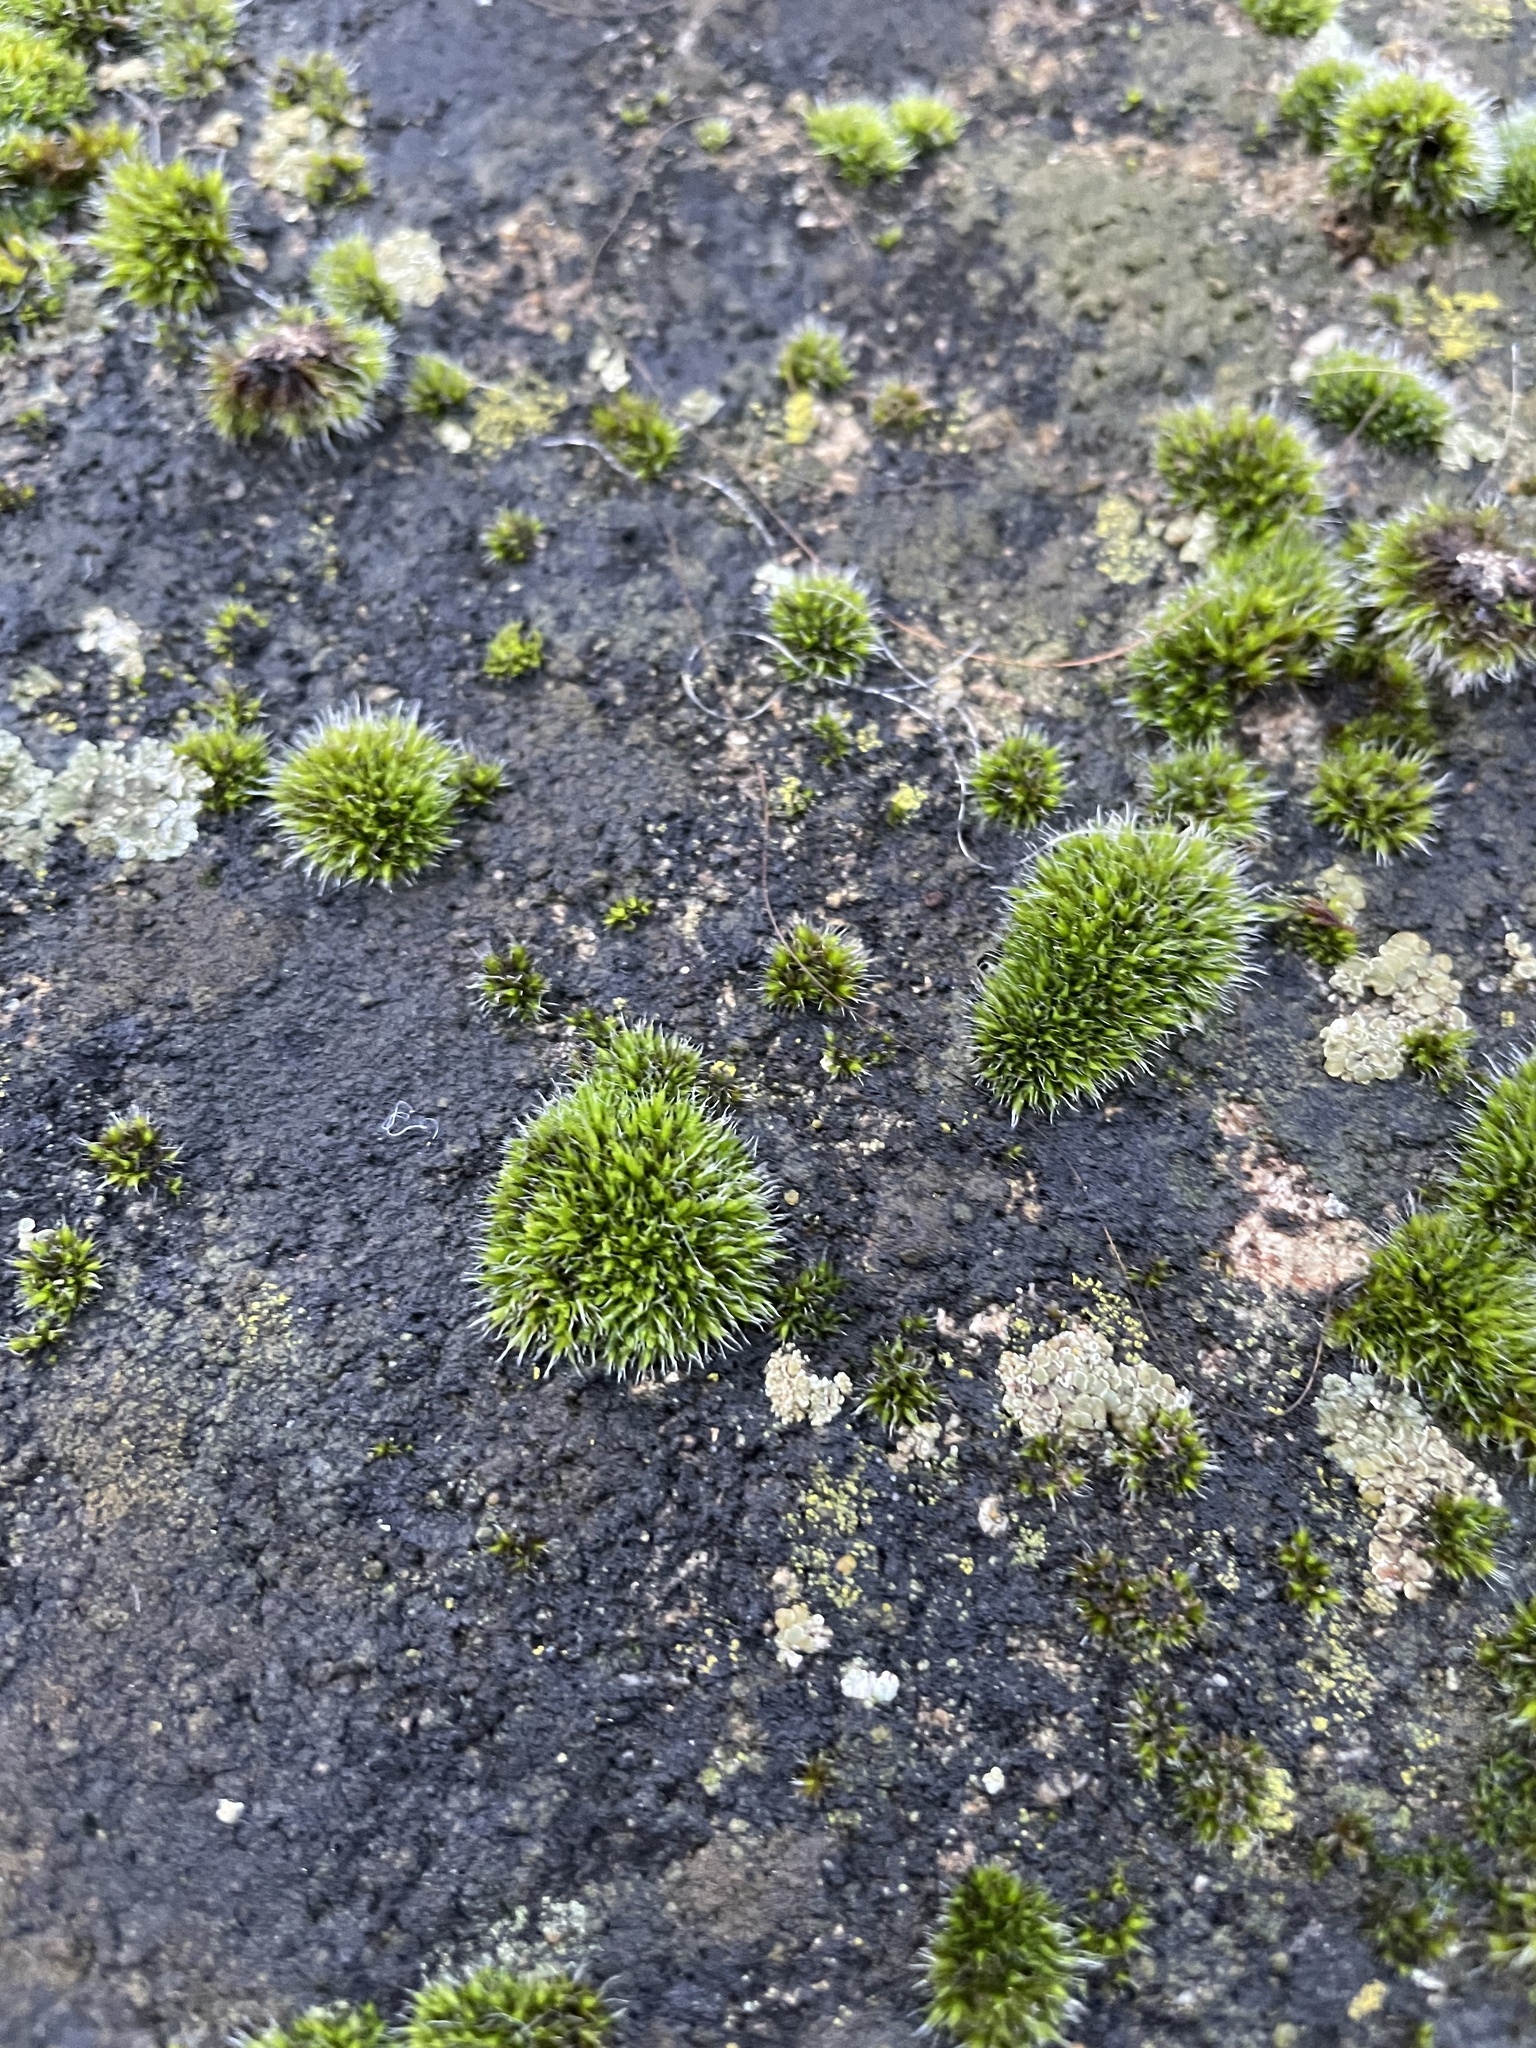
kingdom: Plantae
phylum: Bryophyta
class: Bryopsida
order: Grimmiales
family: Grimmiaceae
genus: Grimmia
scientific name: Grimmia pulvinata
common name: Grey-cushioned grimmia
